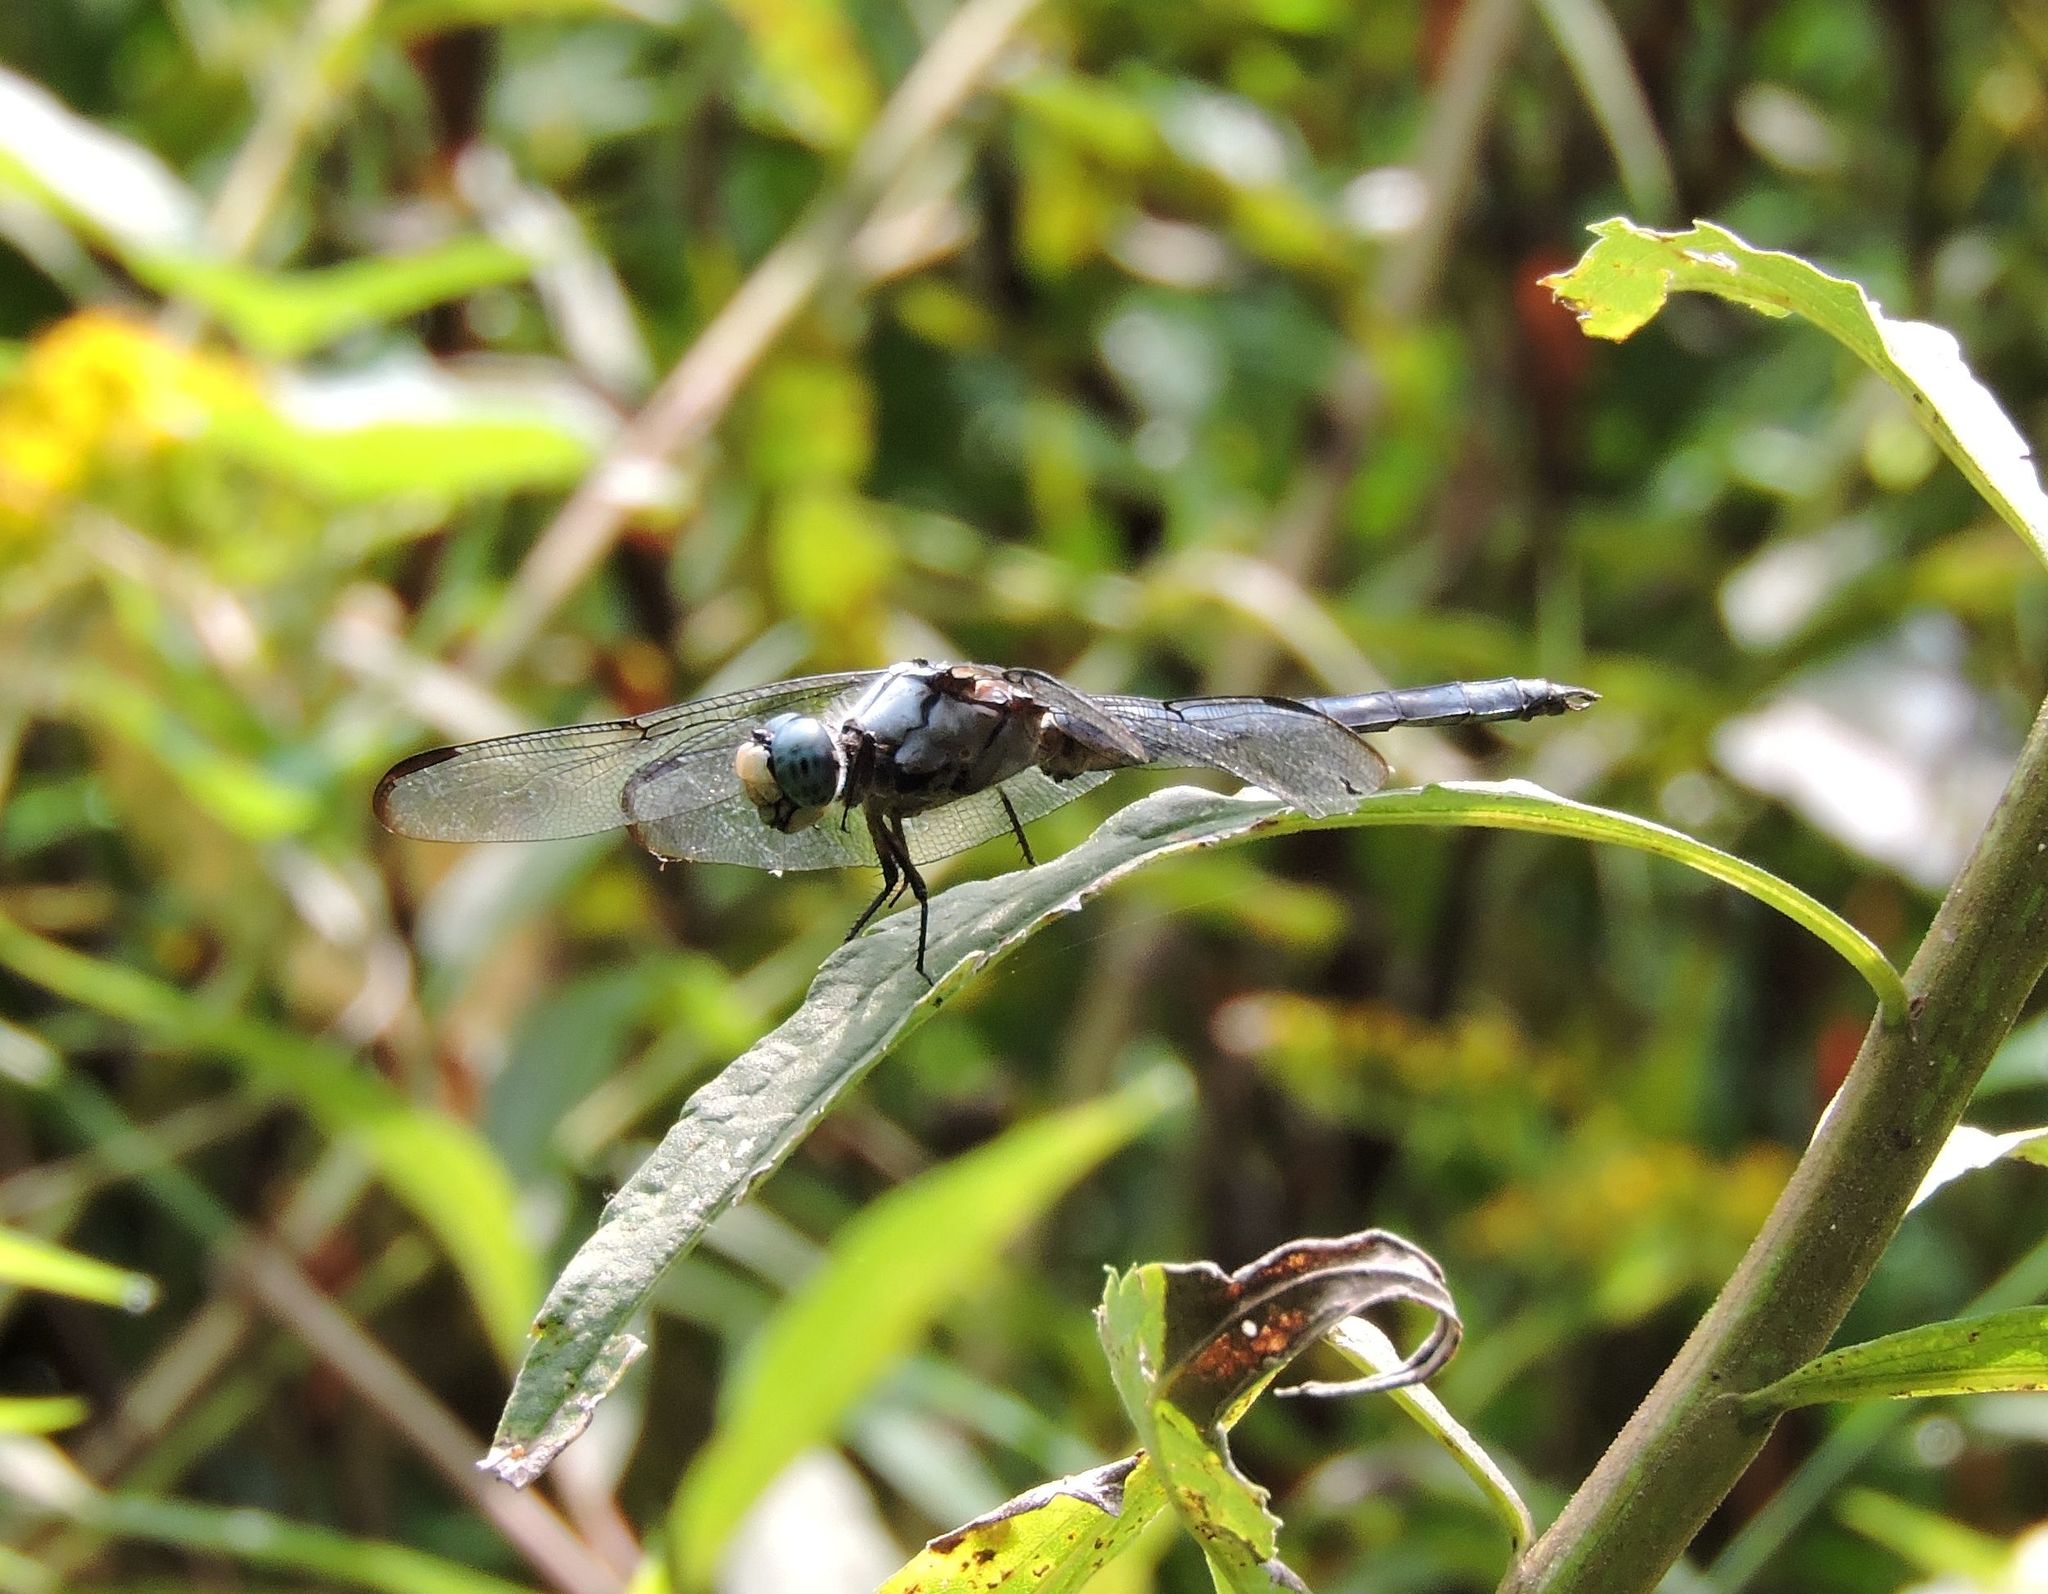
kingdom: Animalia
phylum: Arthropoda
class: Insecta
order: Odonata
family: Libellulidae
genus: Libellula
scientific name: Libellula vibrans
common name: Great blue skimmer
